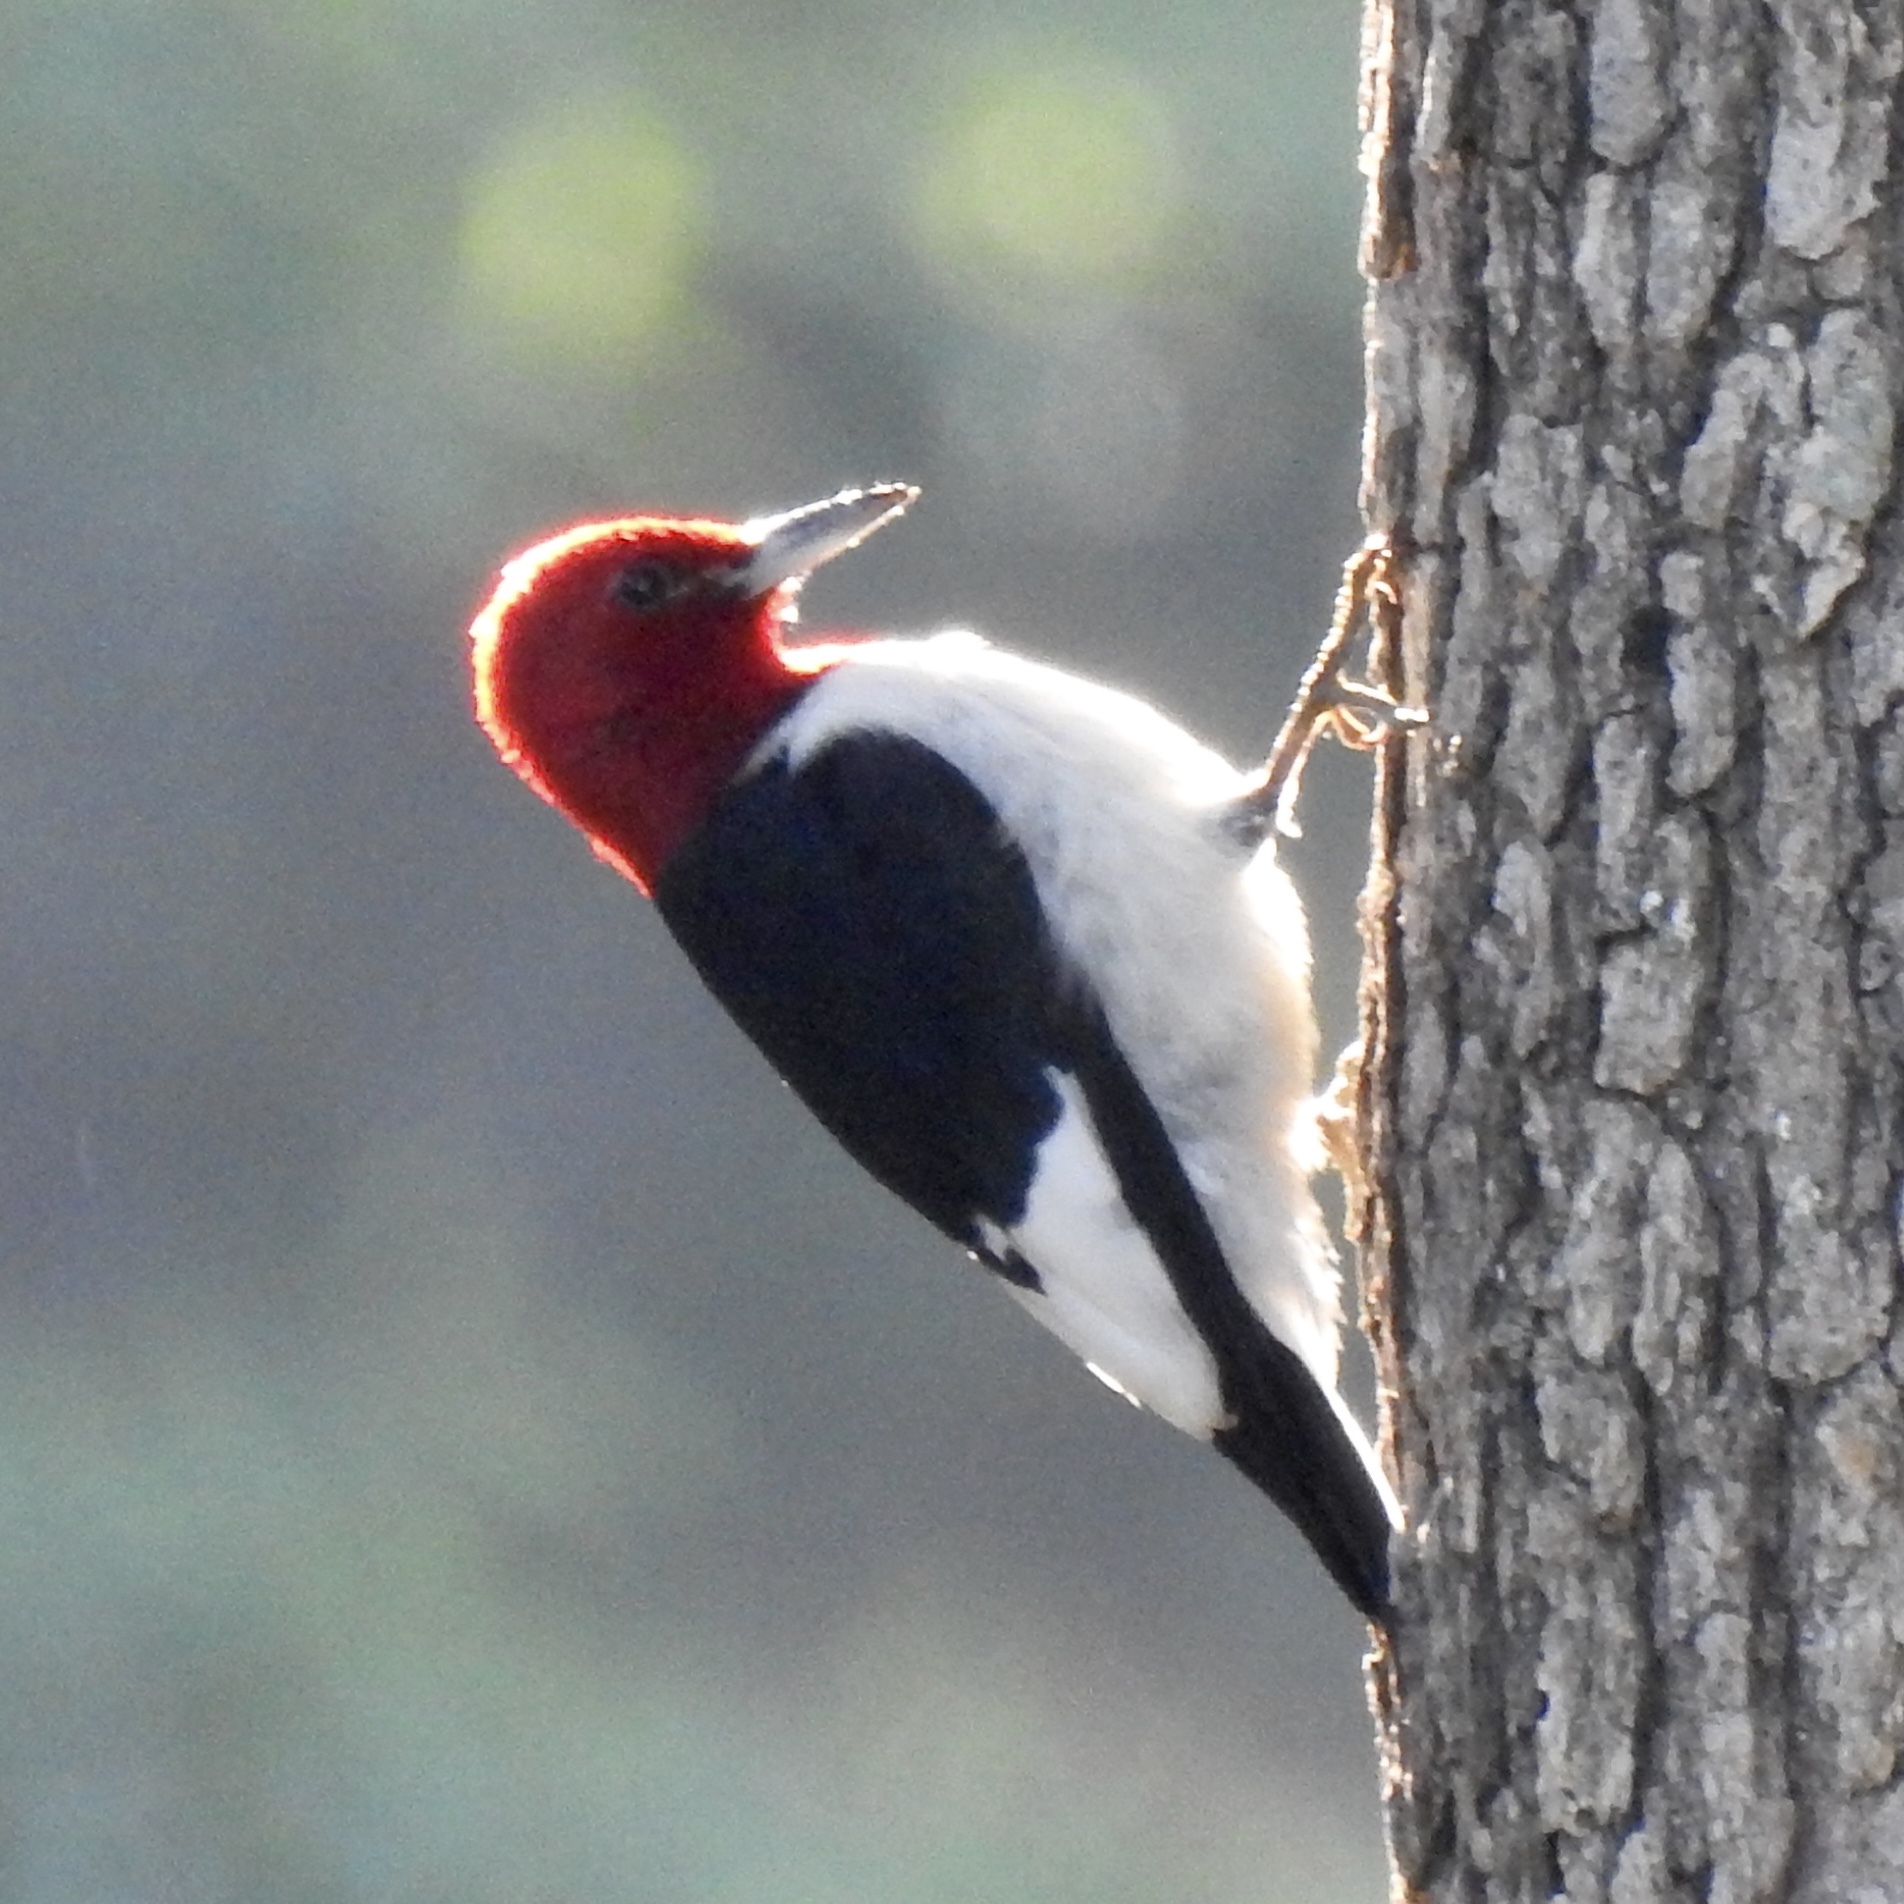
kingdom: Animalia
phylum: Chordata
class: Aves
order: Piciformes
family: Picidae
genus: Melanerpes
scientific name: Melanerpes erythrocephalus
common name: Red-headed woodpecker
